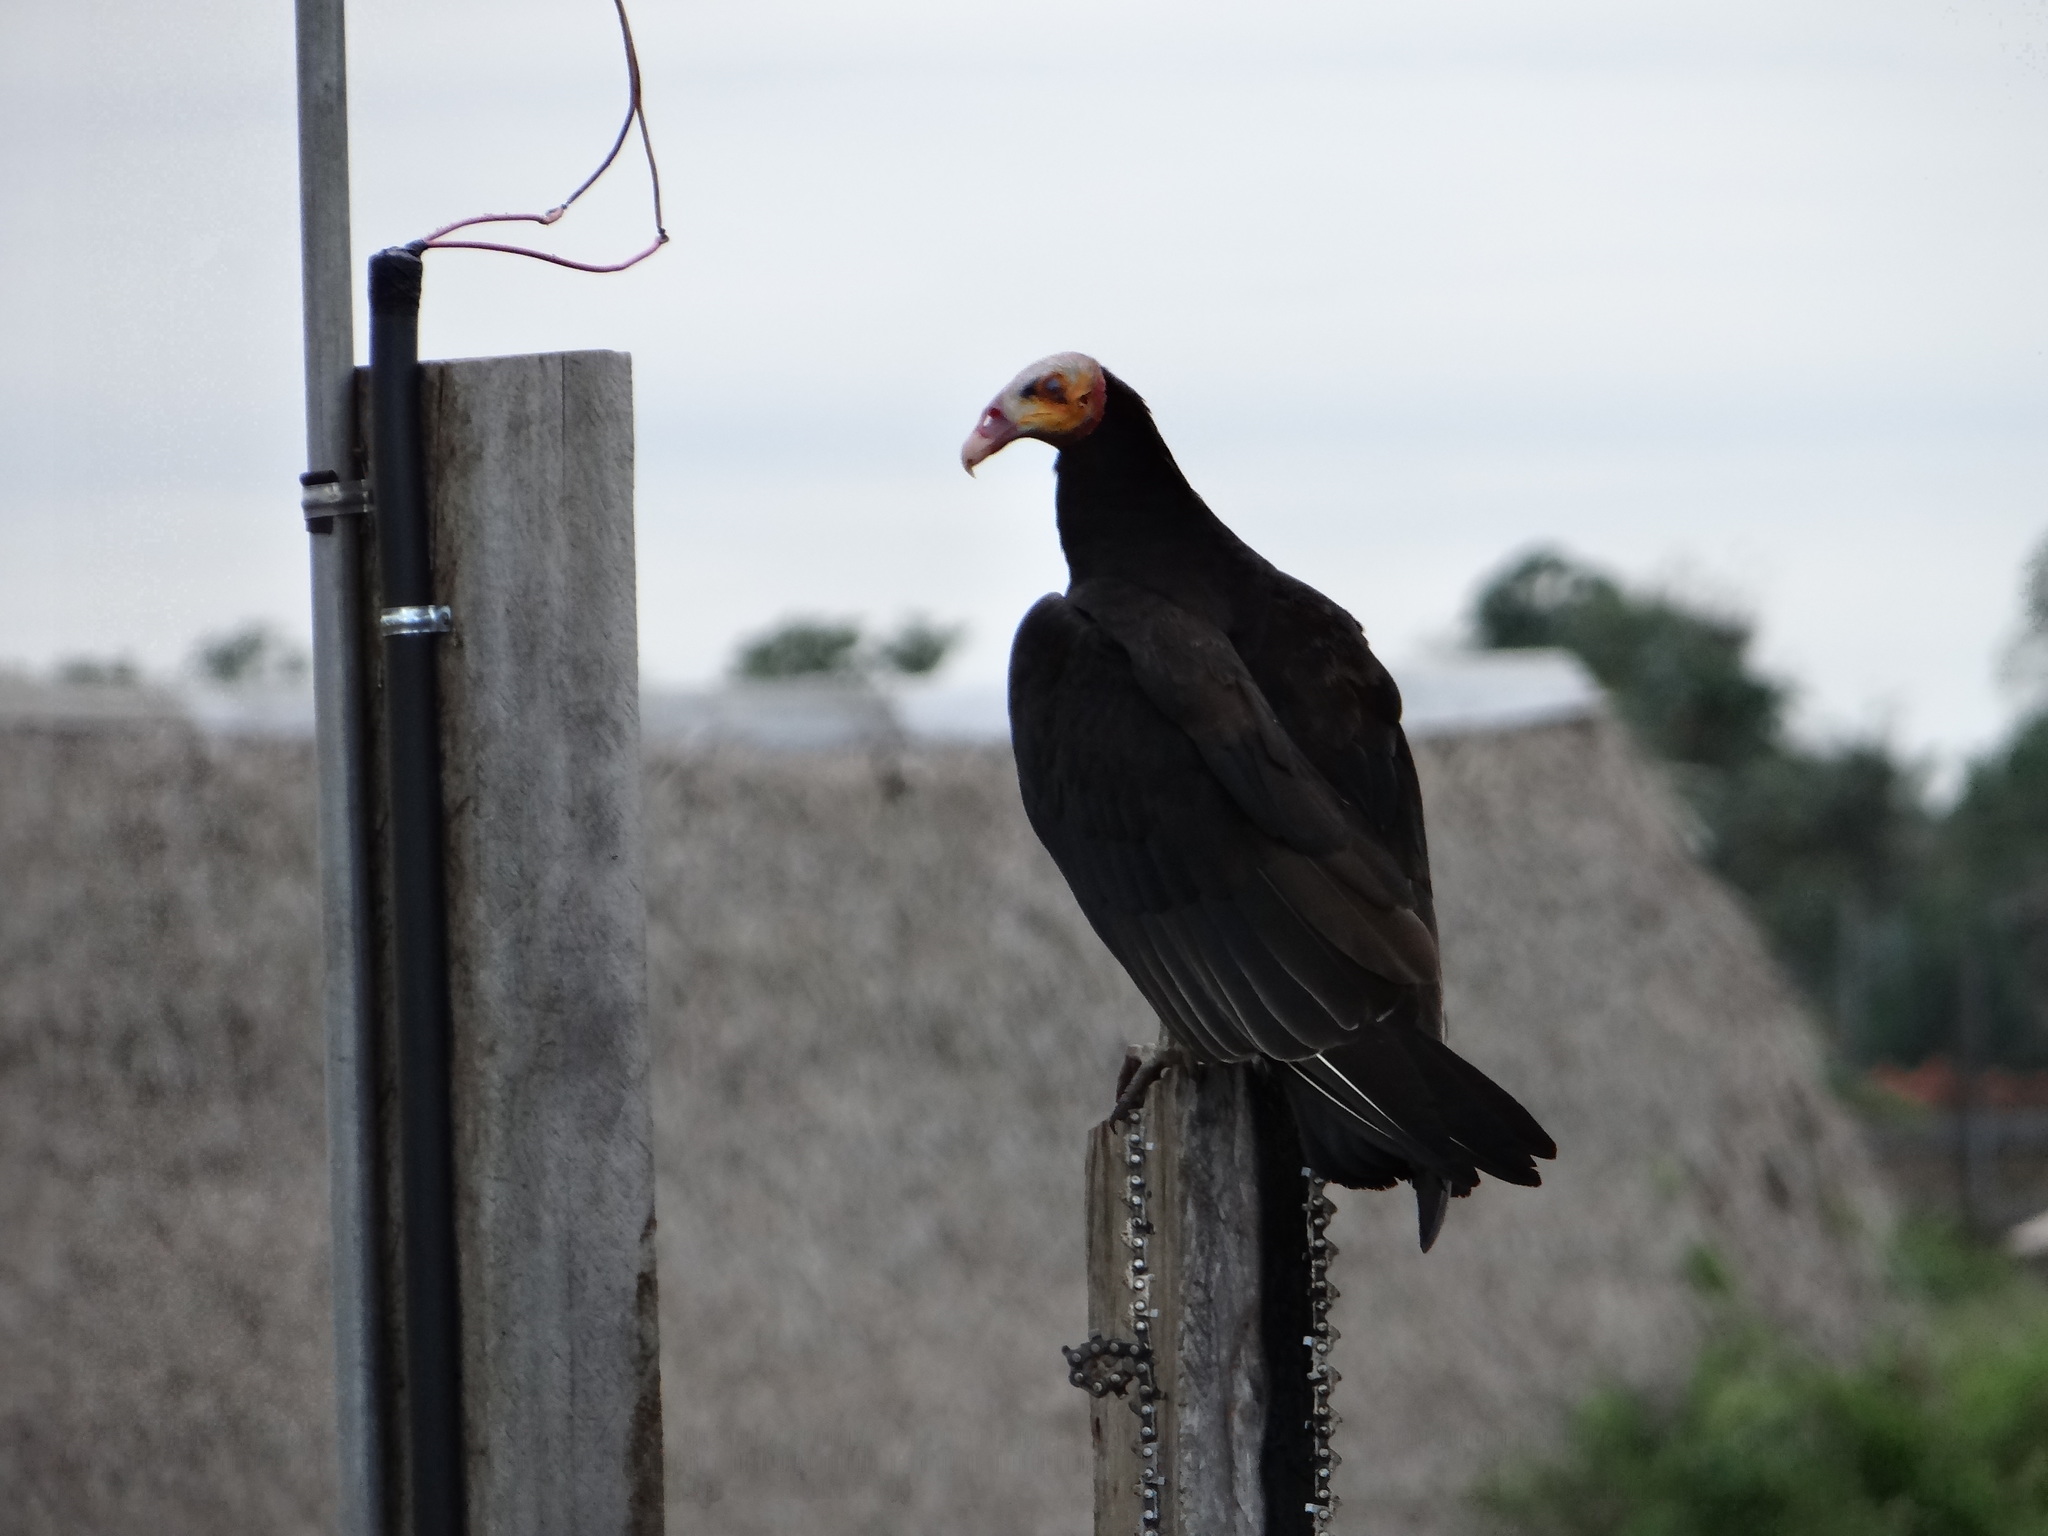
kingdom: Animalia
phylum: Chordata
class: Aves
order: Accipitriformes
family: Cathartidae
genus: Cathartes
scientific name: Cathartes burrovianus
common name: Lesser yellow-headed vulture
